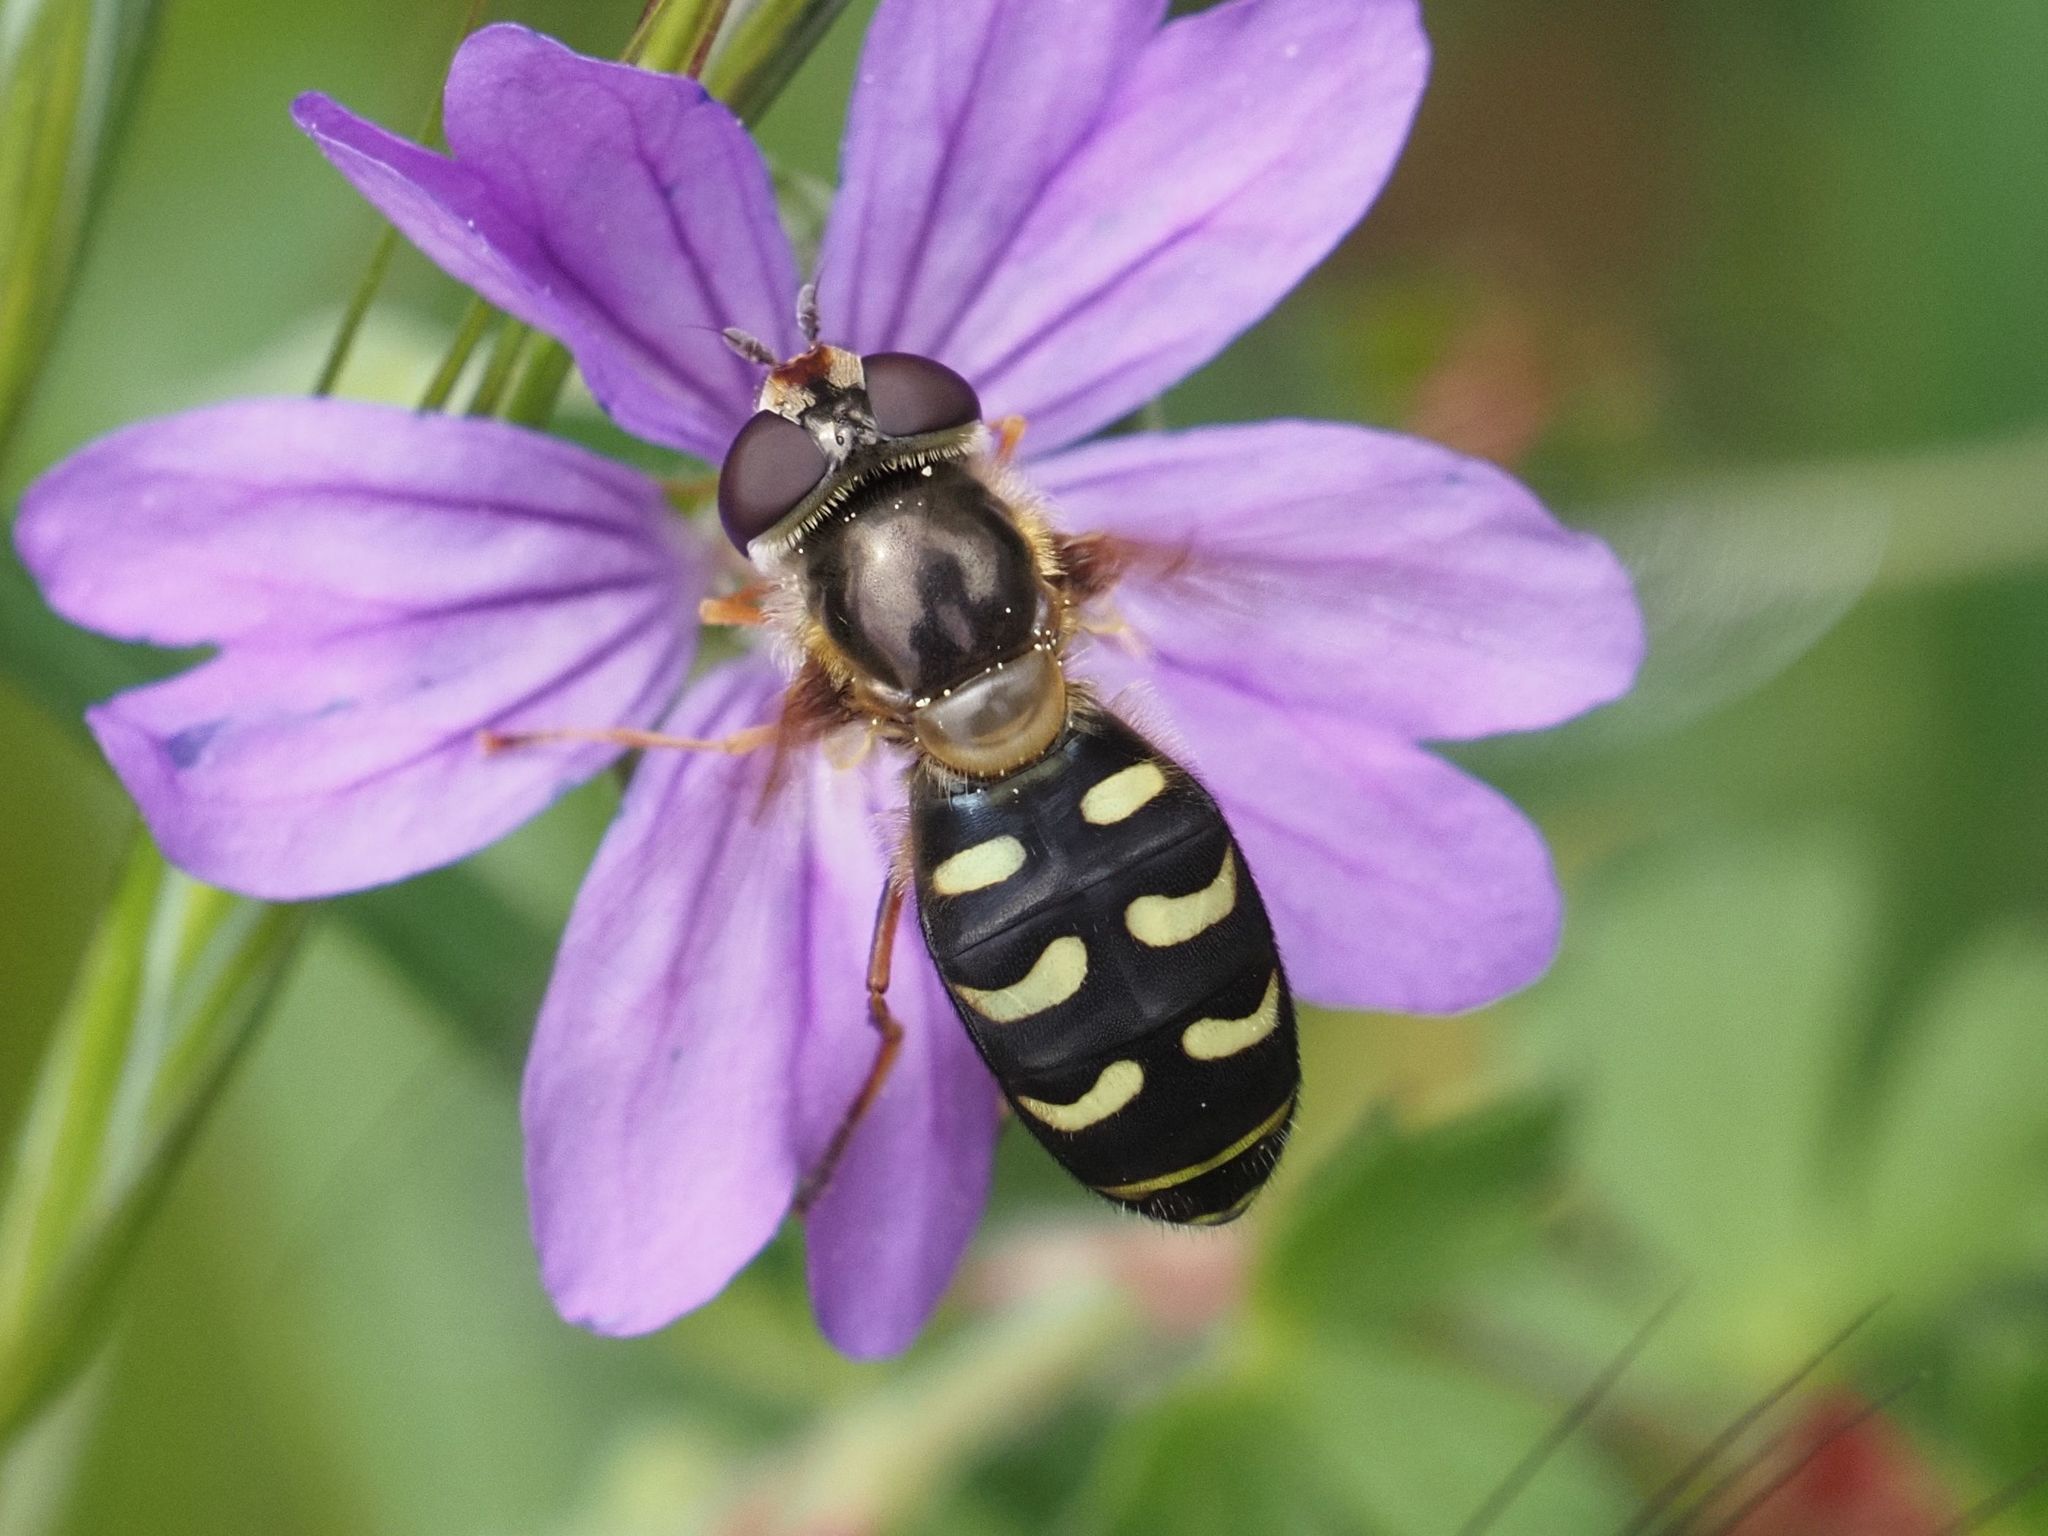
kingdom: Animalia
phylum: Arthropoda
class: Insecta
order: Diptera
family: Syrphidae
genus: Lapposyrphus
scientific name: Lapposyrphus lapponicus
